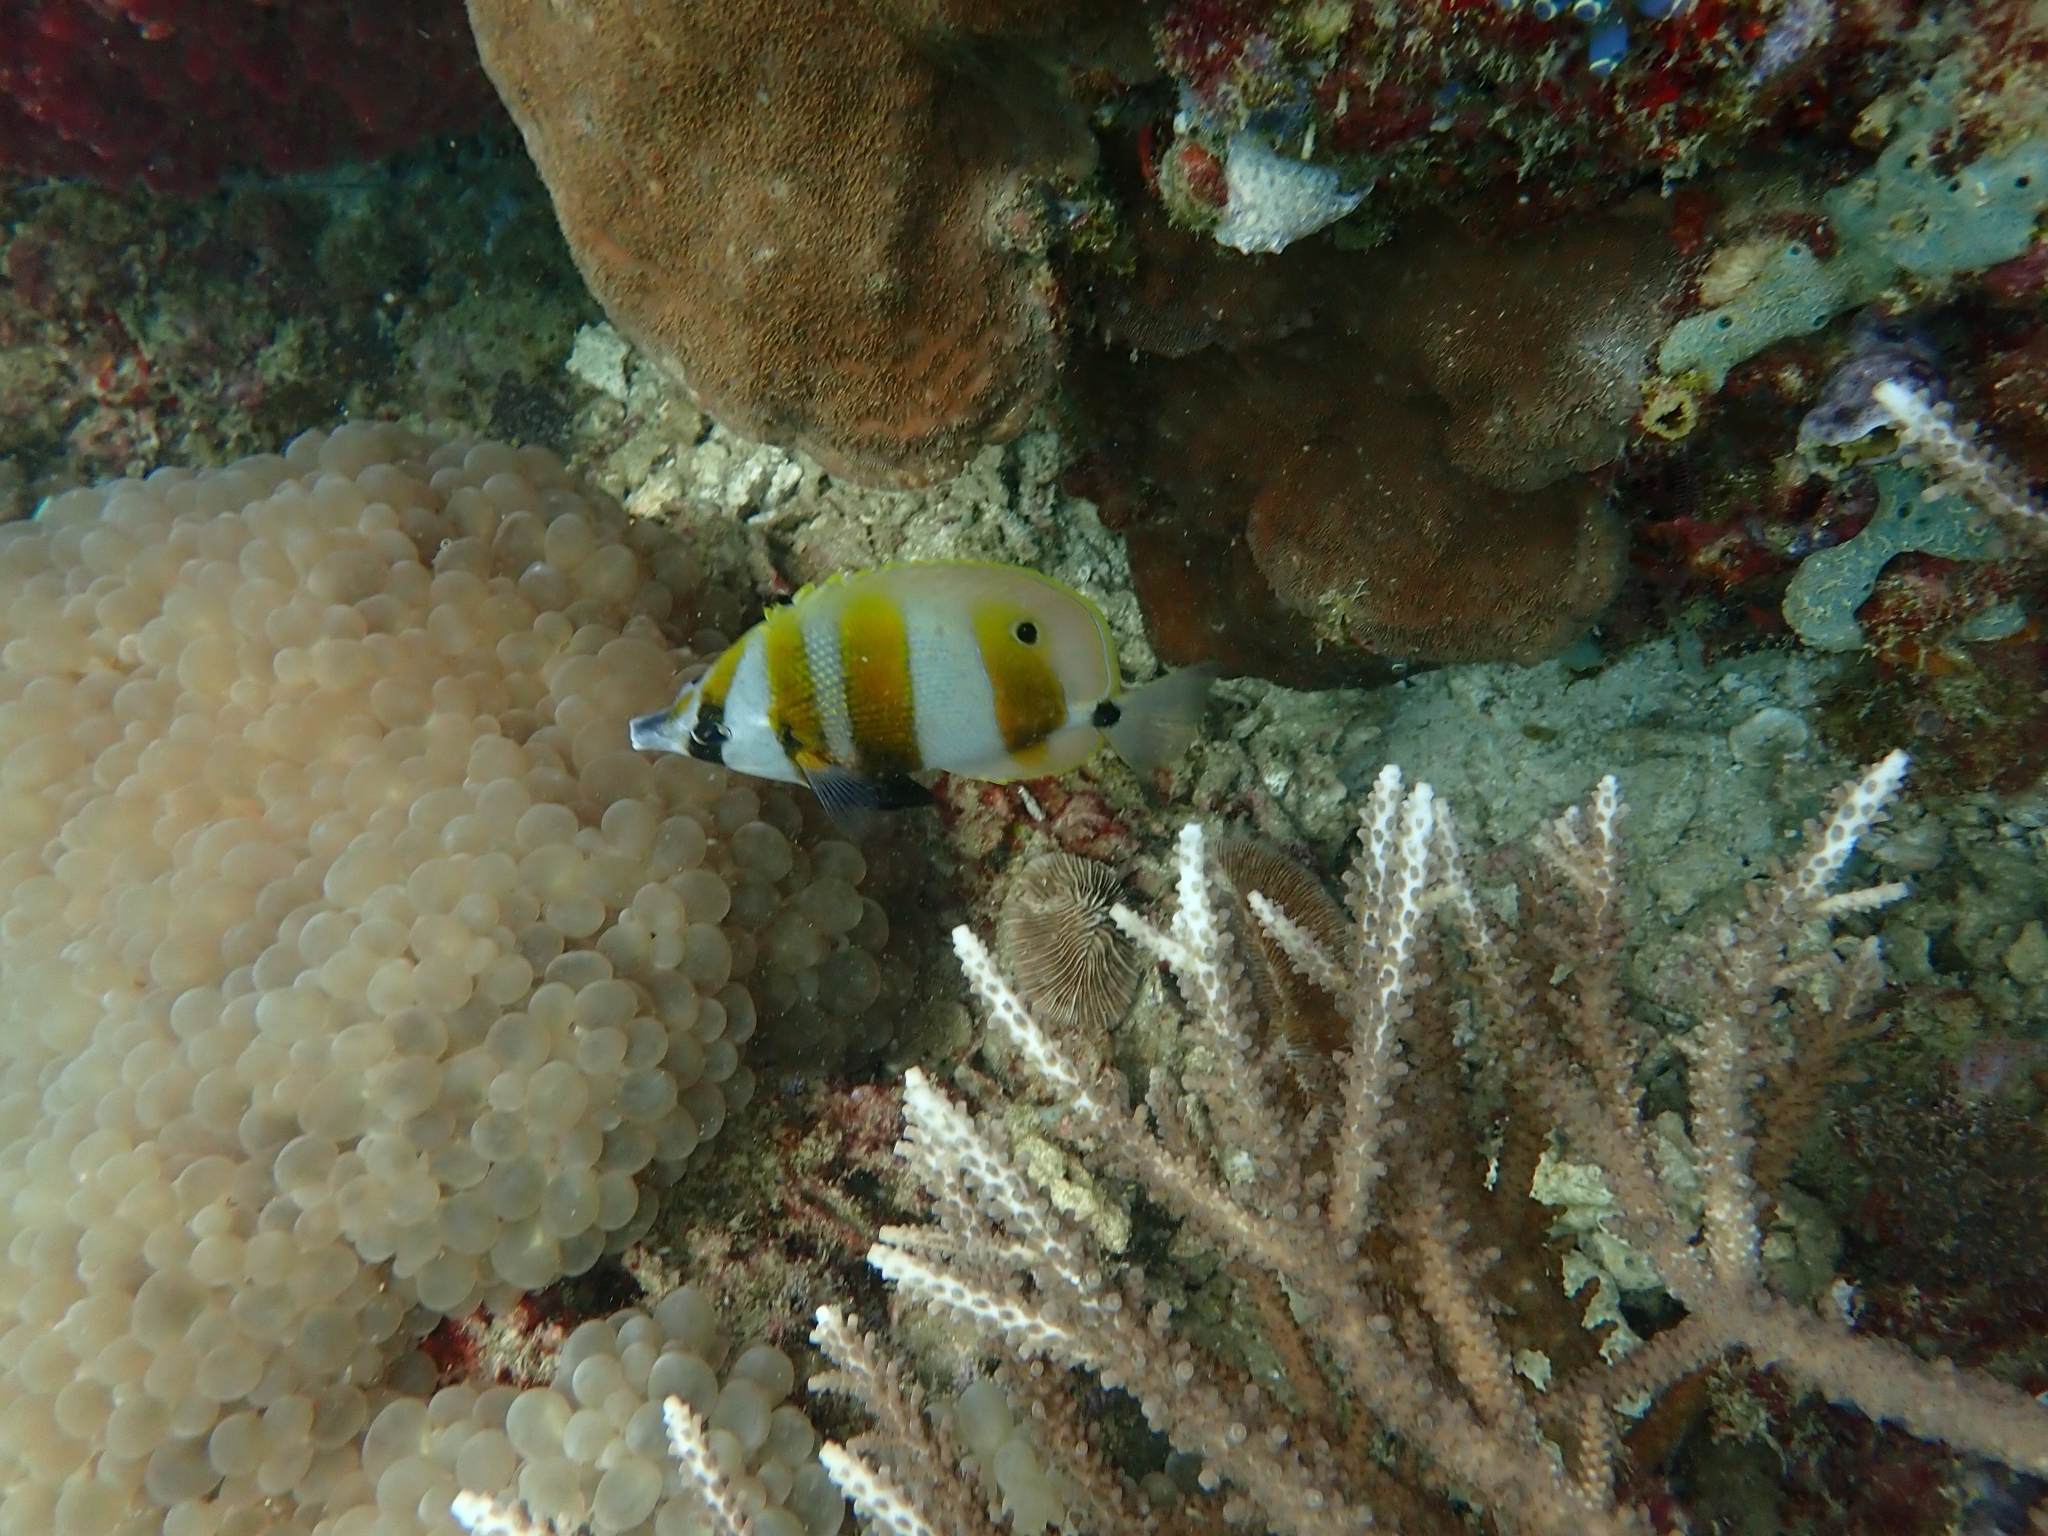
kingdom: Animalia
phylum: Chordata
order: Perciformes
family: Chaetodontidae
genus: Coradion
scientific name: Coradion chrysozonus
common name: Orange-banded coralfish
